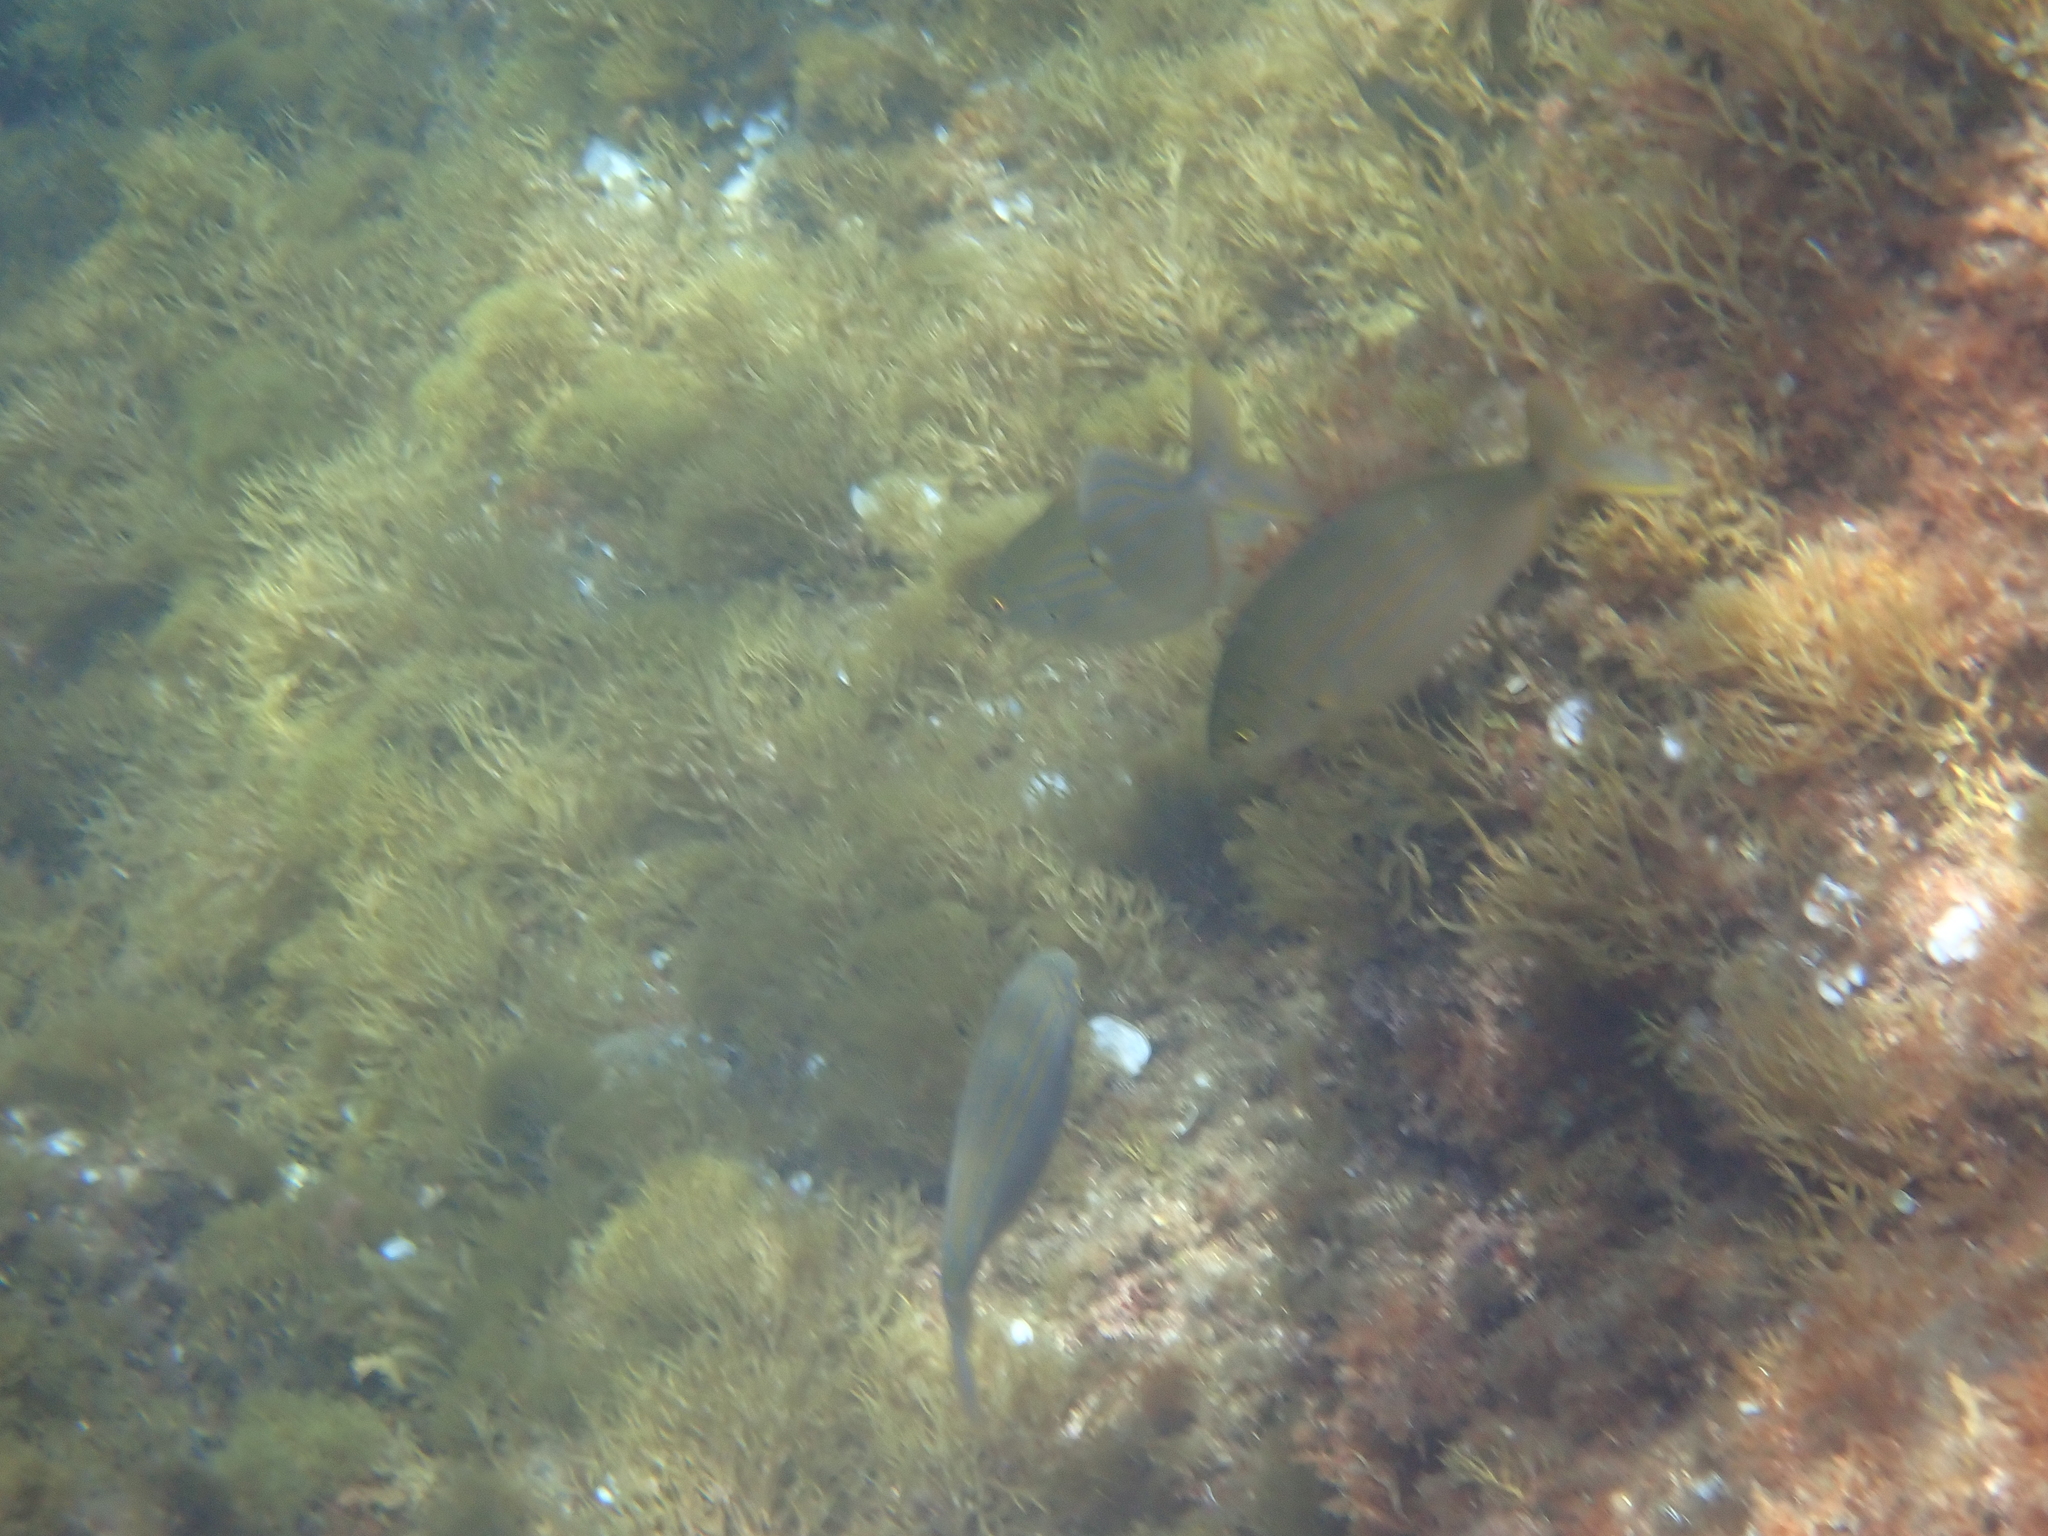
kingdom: Animalia
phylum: Chordata
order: Perciformes
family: Sparidae
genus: Sarpa
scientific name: Sarpa salpa
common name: Salema
